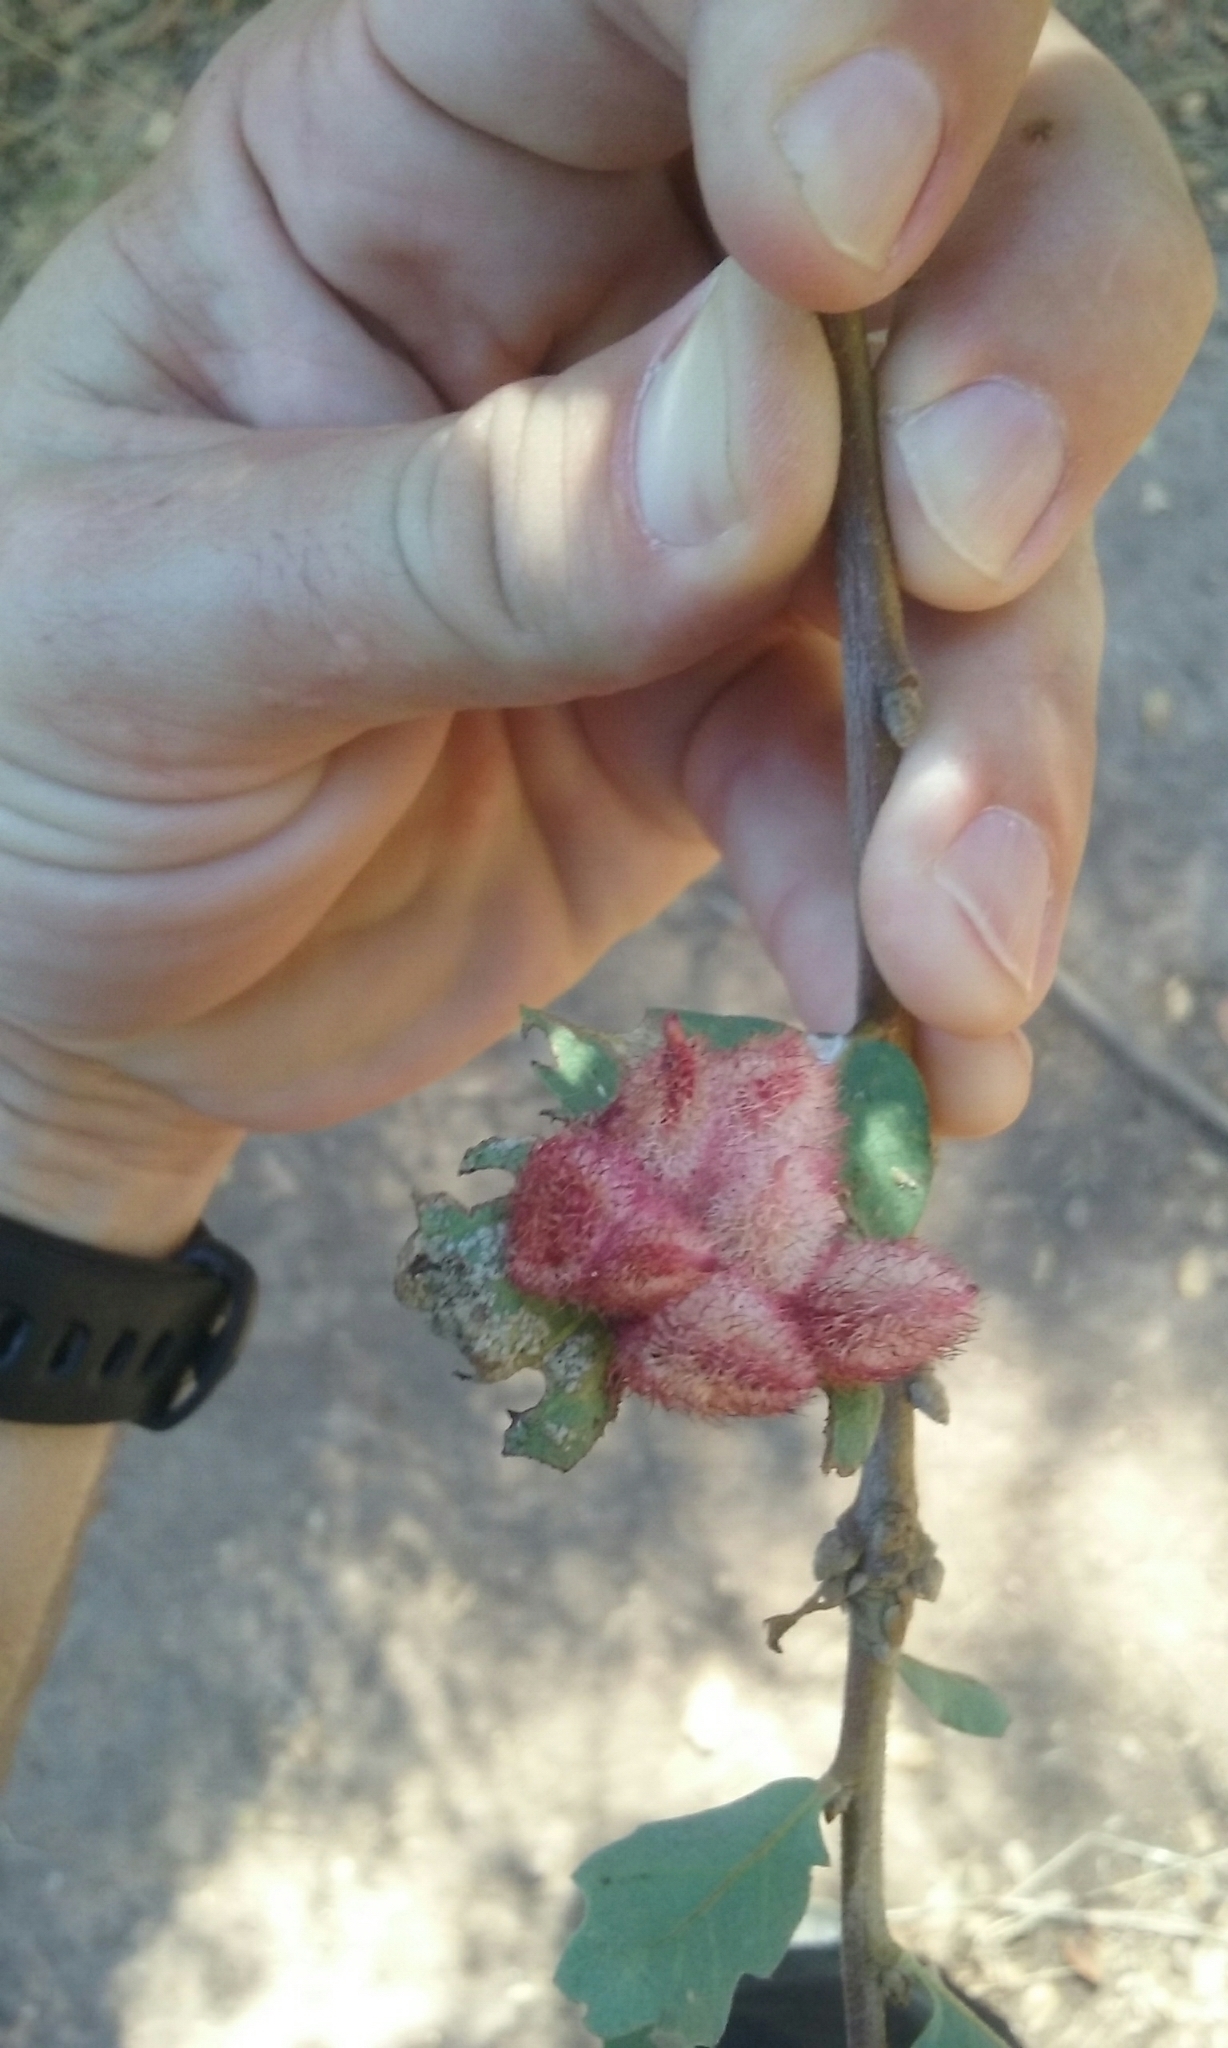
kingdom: Animalia
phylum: Arthropoda
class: Insecta
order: Hymenoptera
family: Cynipidae
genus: Andricus
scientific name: Andricus
